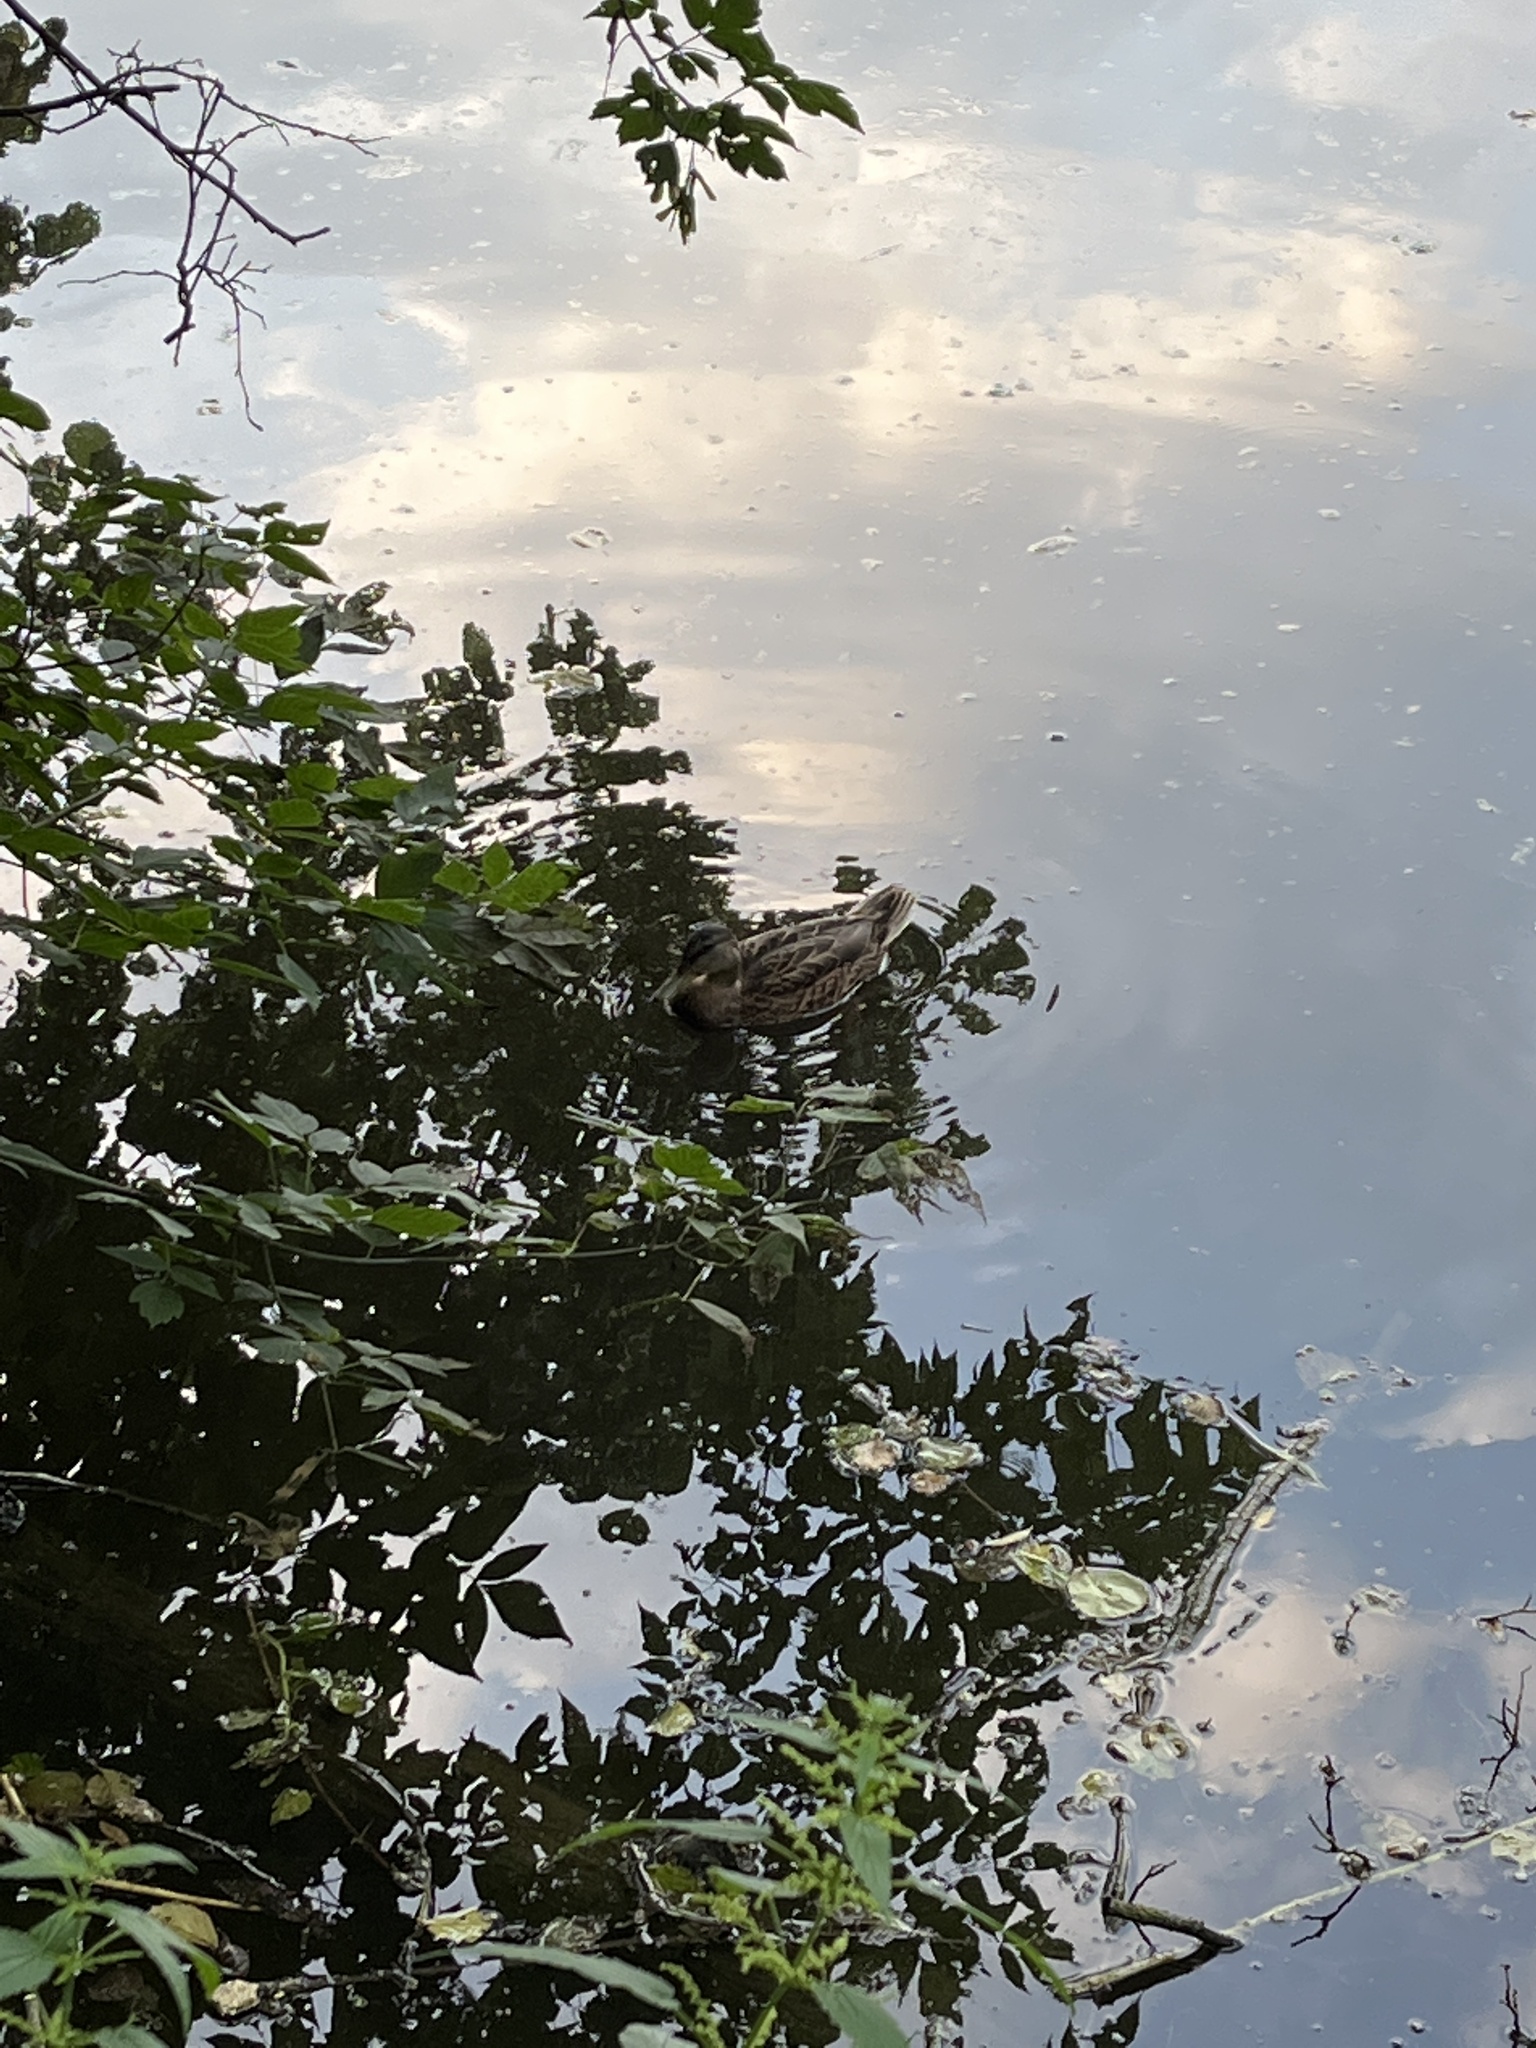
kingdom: Animalia
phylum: Chordata
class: Aves
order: Anseriformes
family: Anatidae
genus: Anas
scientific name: Anas platyrhynchos
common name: Mallard
